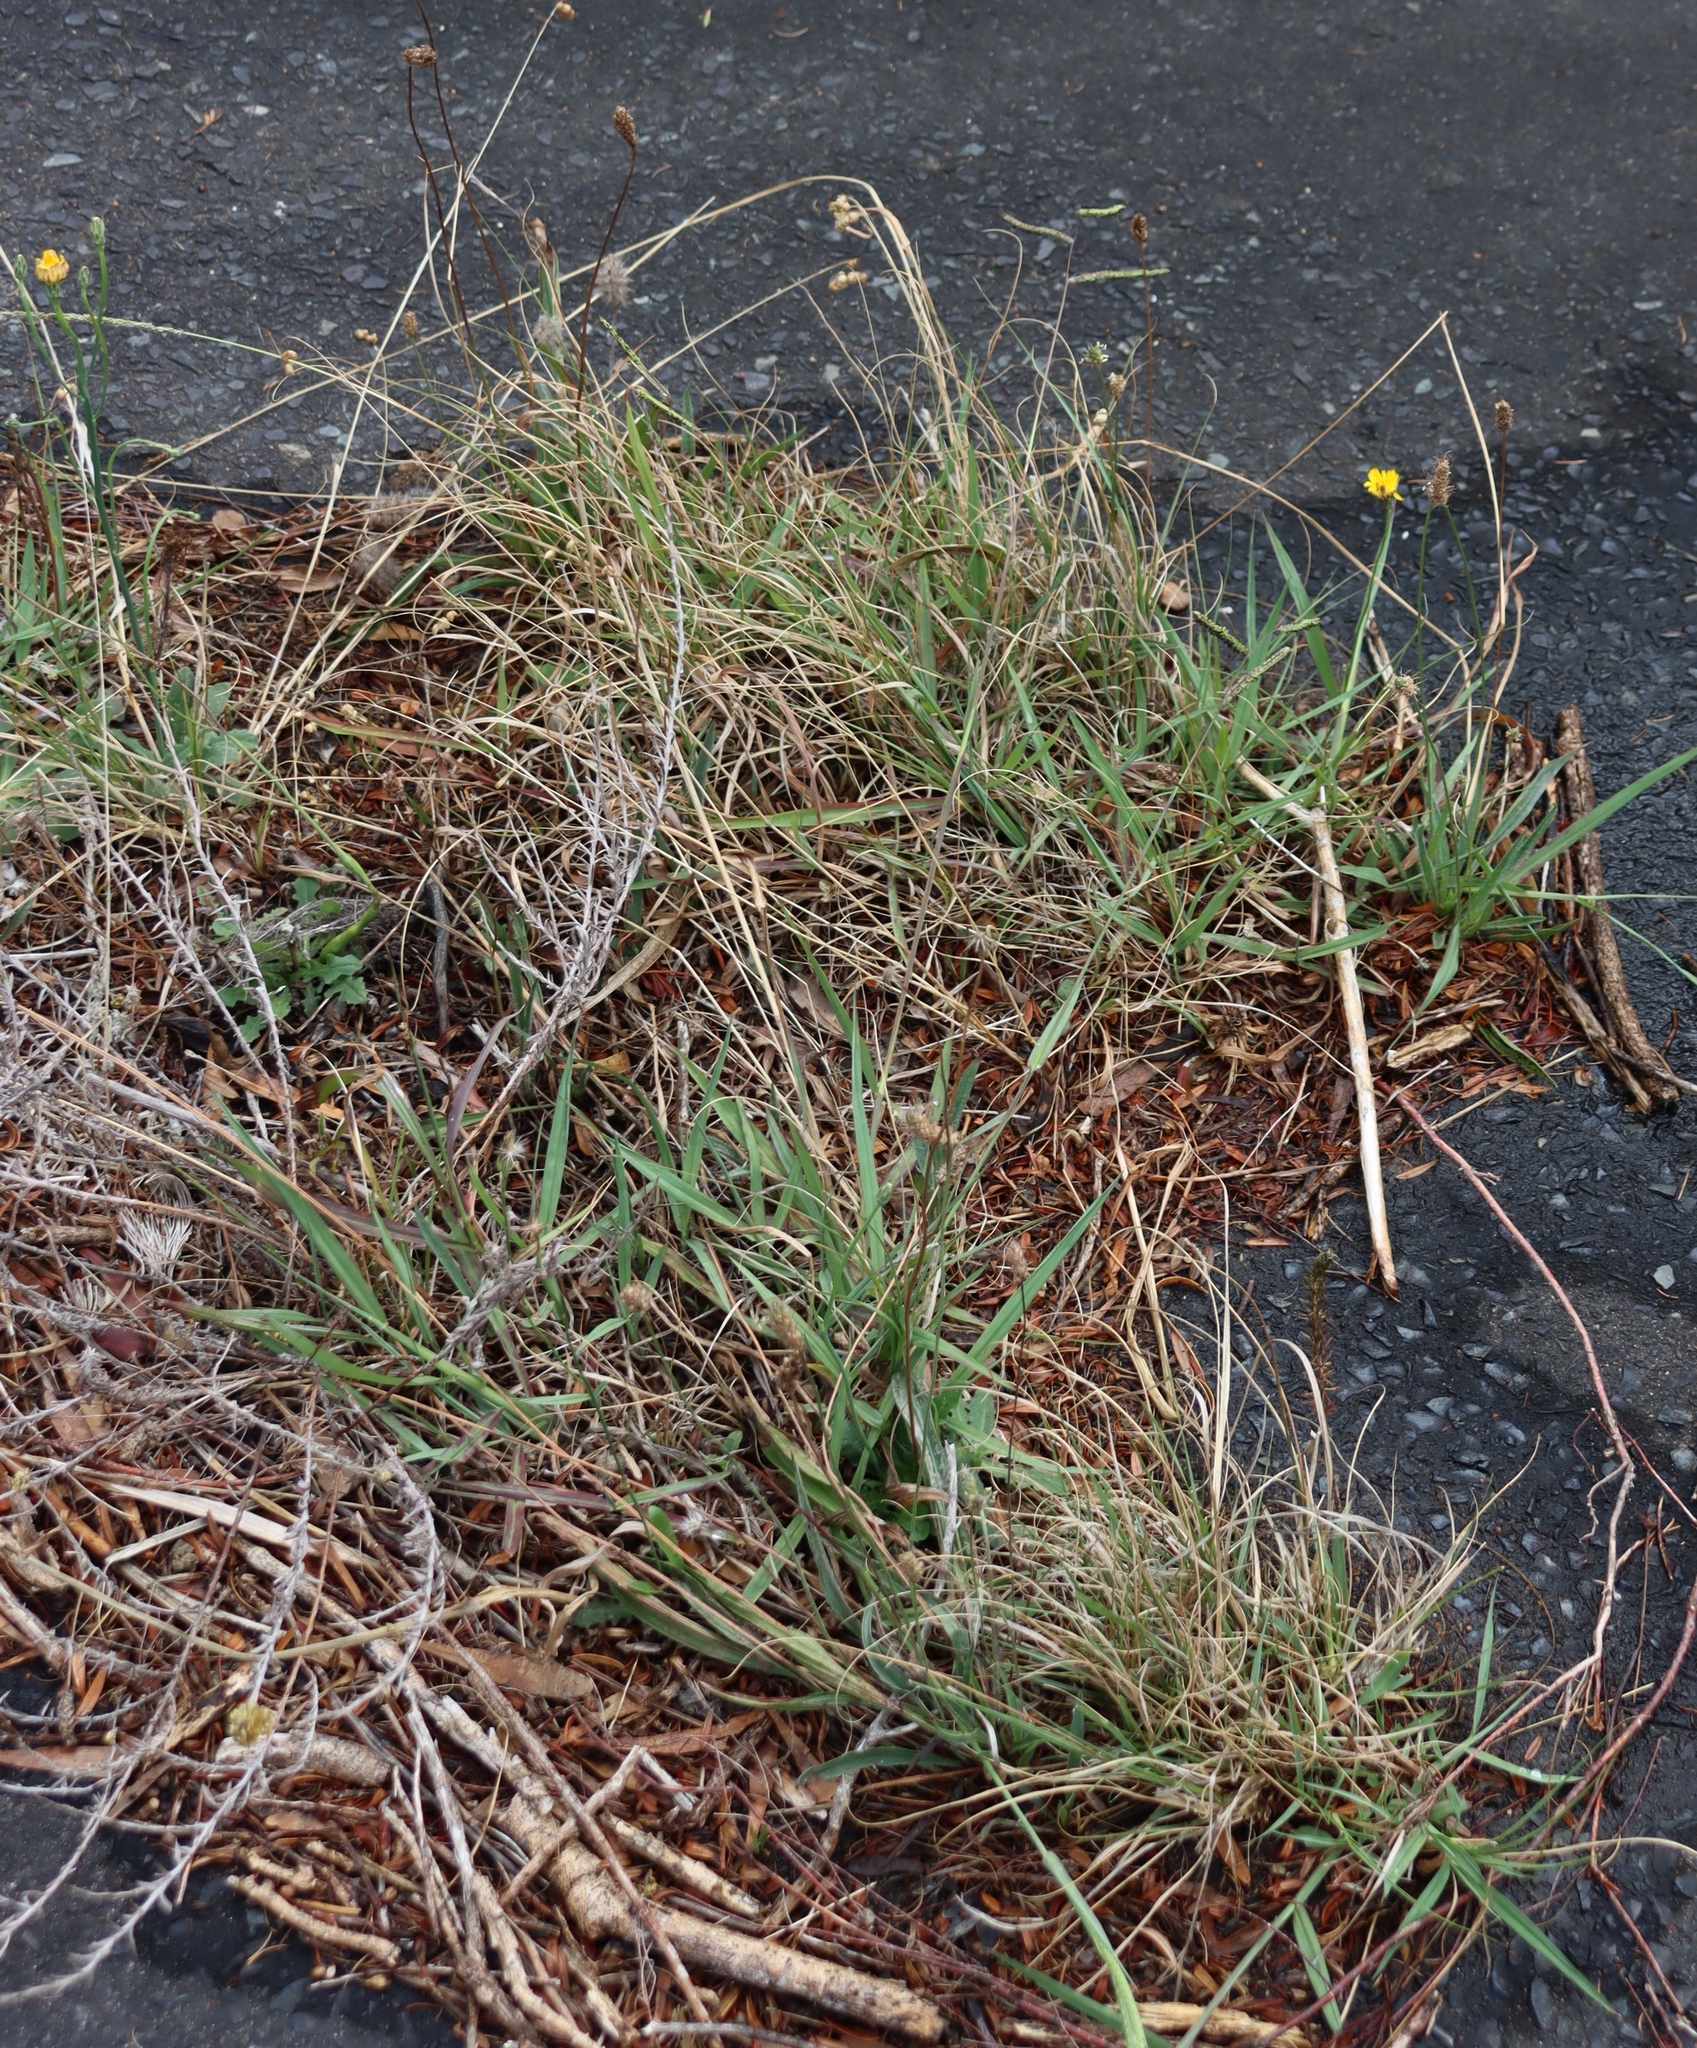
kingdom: Plantae
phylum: Tracheophyta
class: Liliopsida
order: Poales
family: Poaceae
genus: Paspalum
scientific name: Paspalum dilatatum
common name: Dallisgrass
